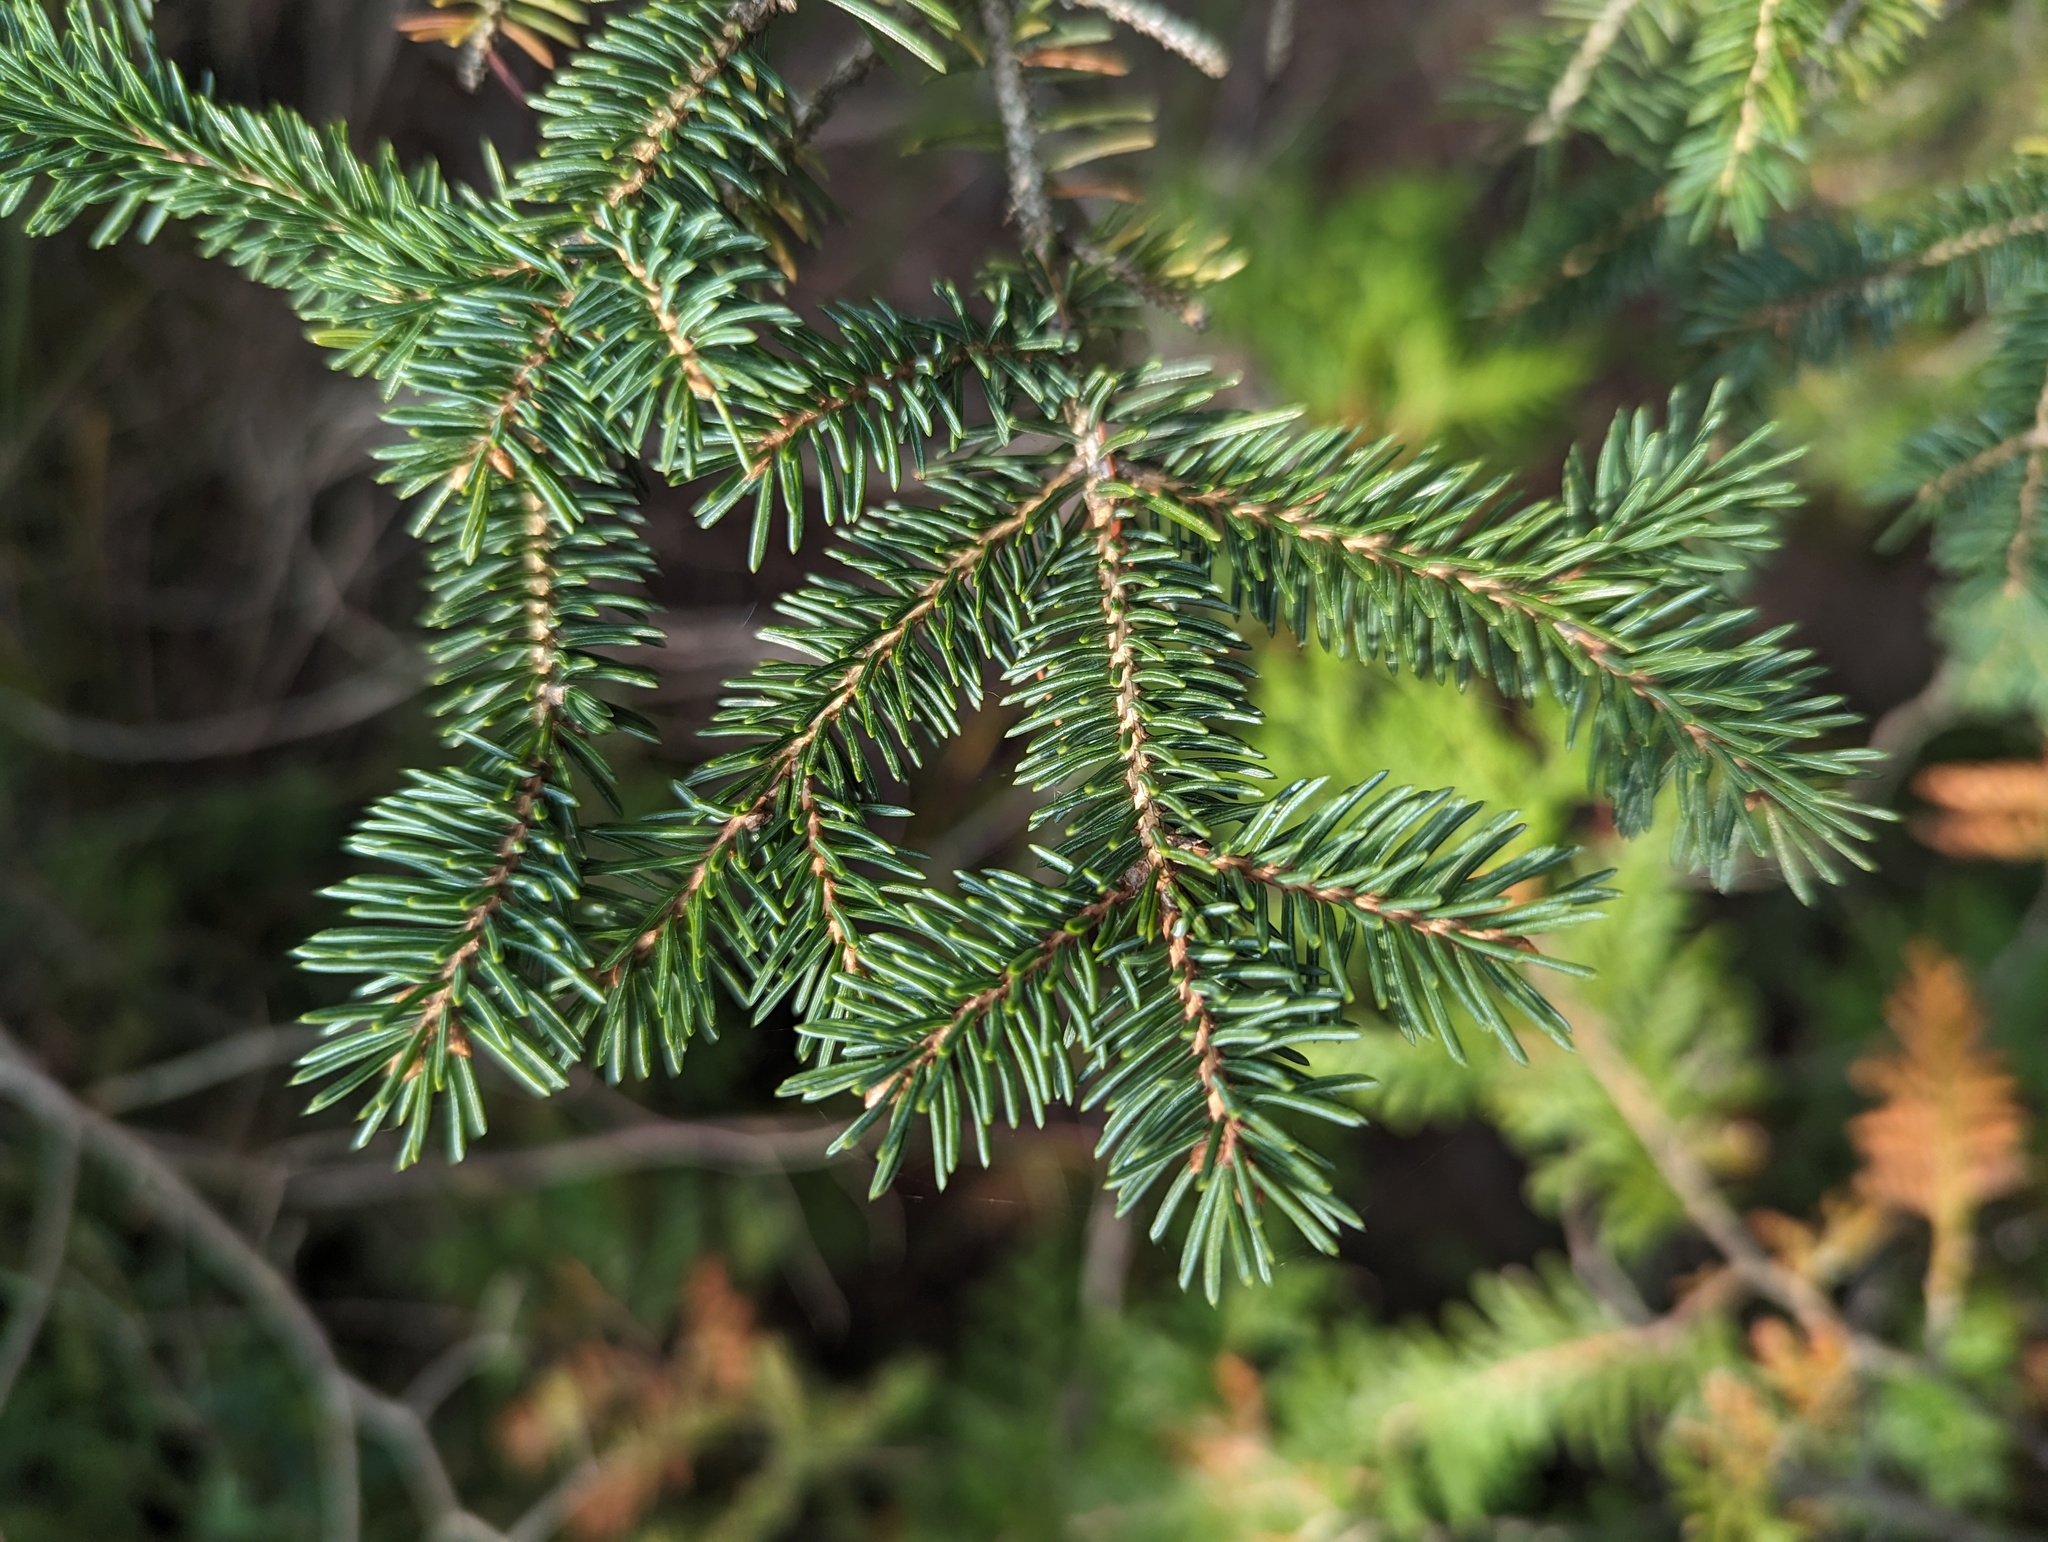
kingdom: Plantae
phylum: Tracheophyta
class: Pinopsida
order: Pinales
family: Pinaceae
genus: Picea
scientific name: Picea mariana
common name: Black spruce
